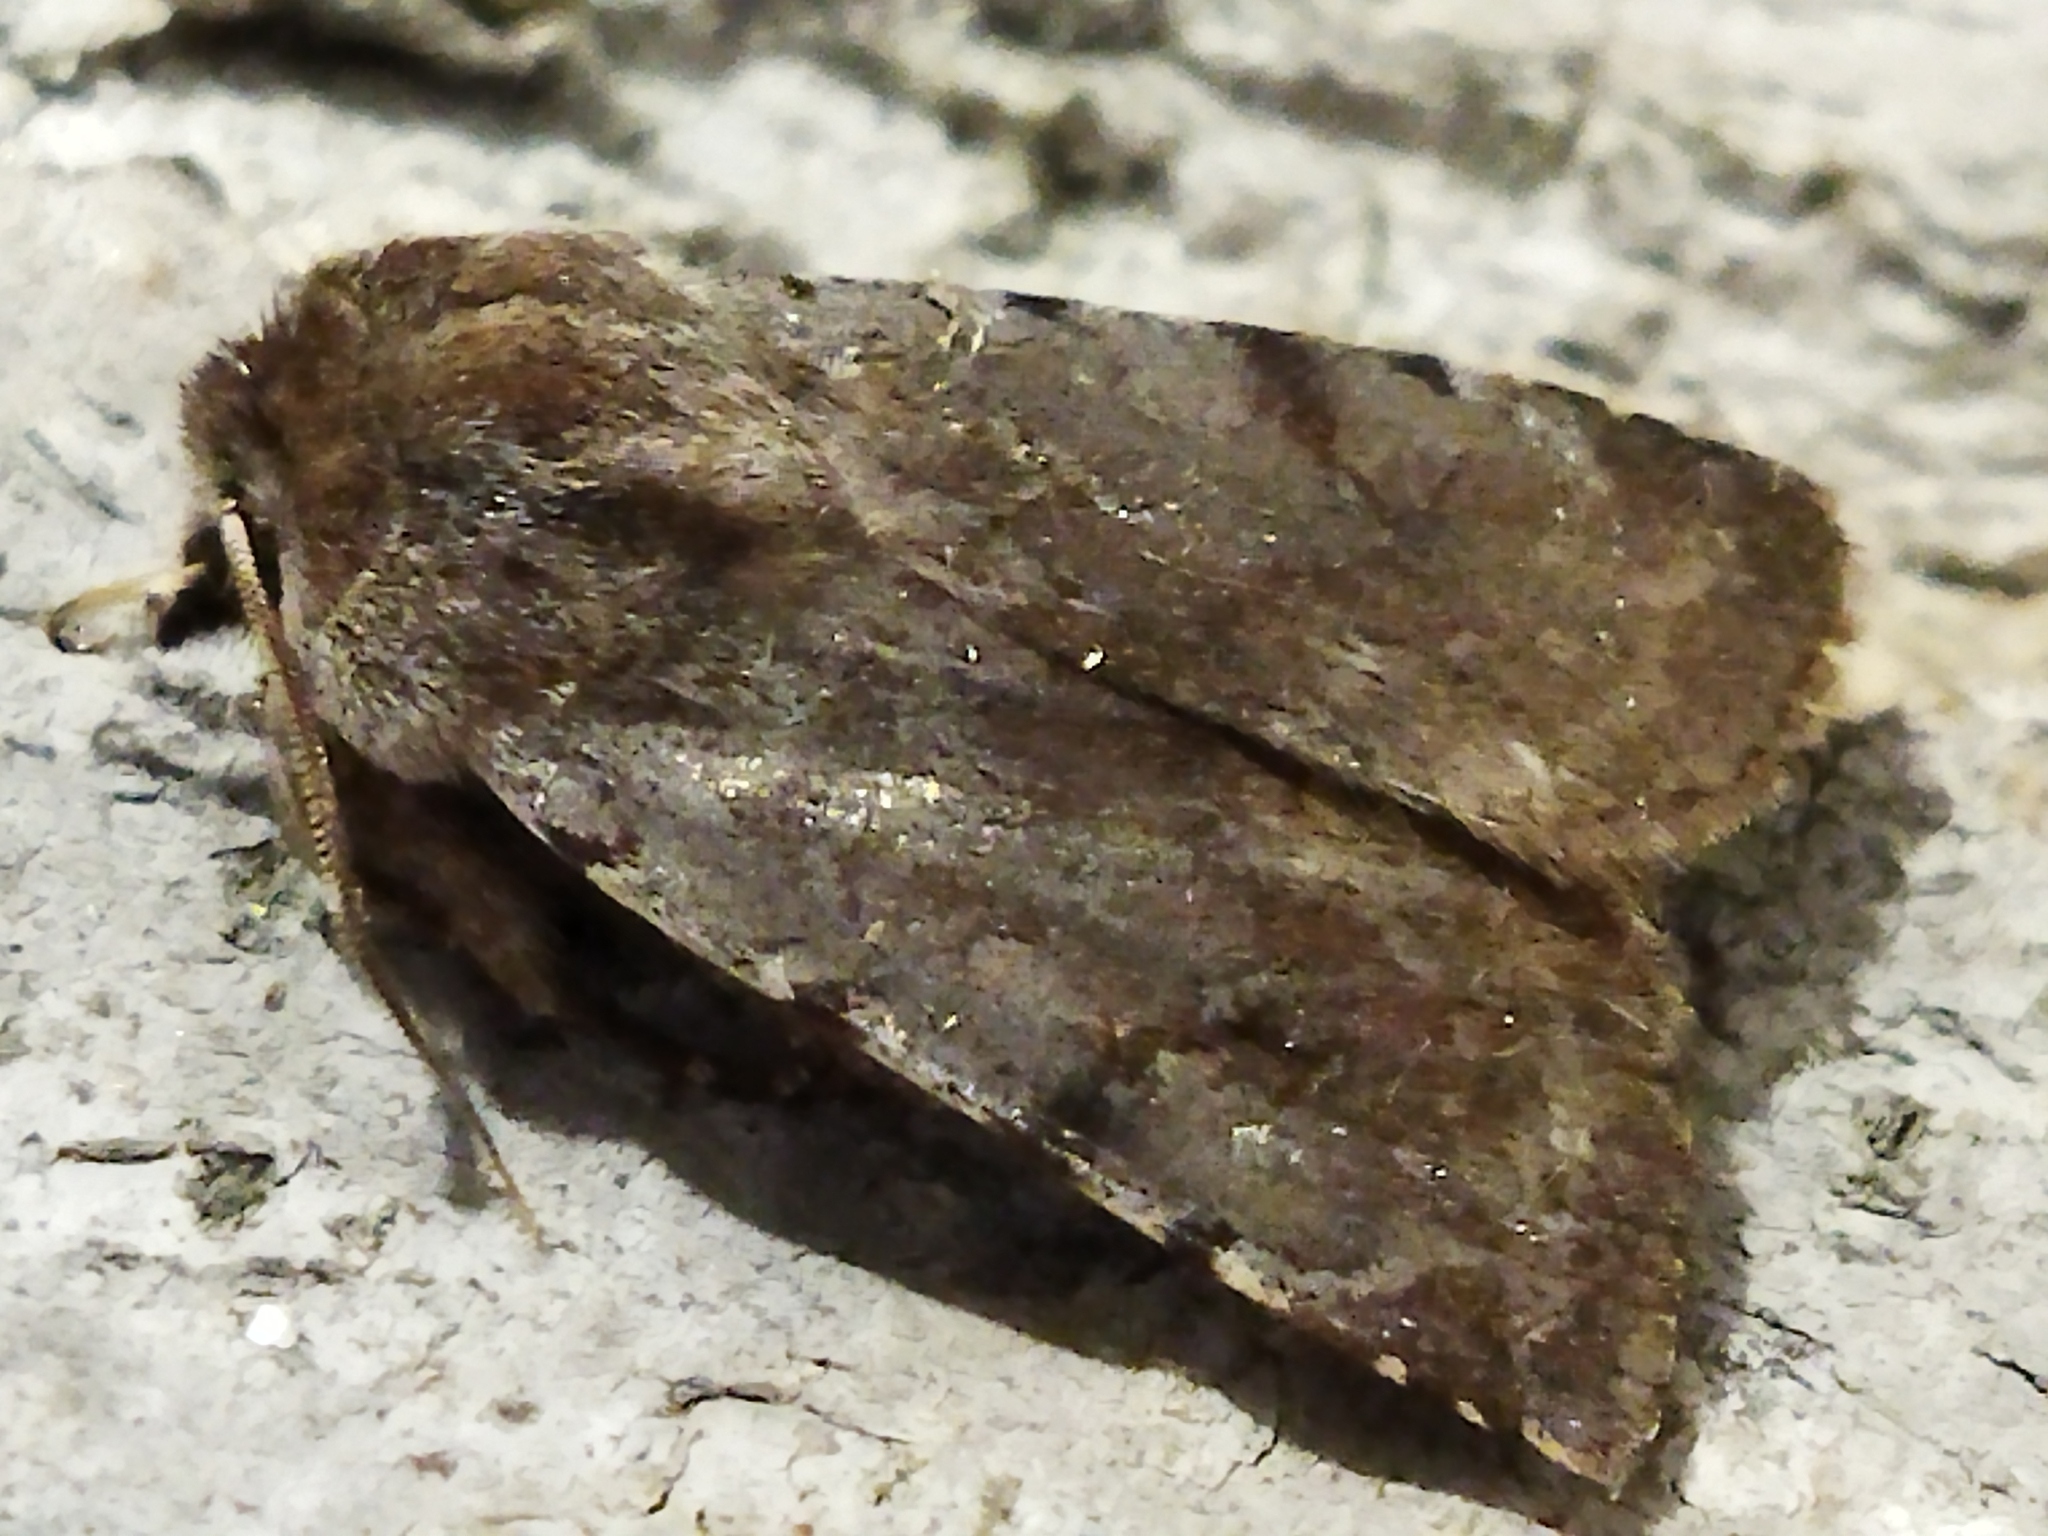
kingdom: Animalia
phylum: Arthropoda
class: Insecta
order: Lepidoptera
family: Noctuidae
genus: Cerastis
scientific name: Cerastis rubricosa
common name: Red chestnut
